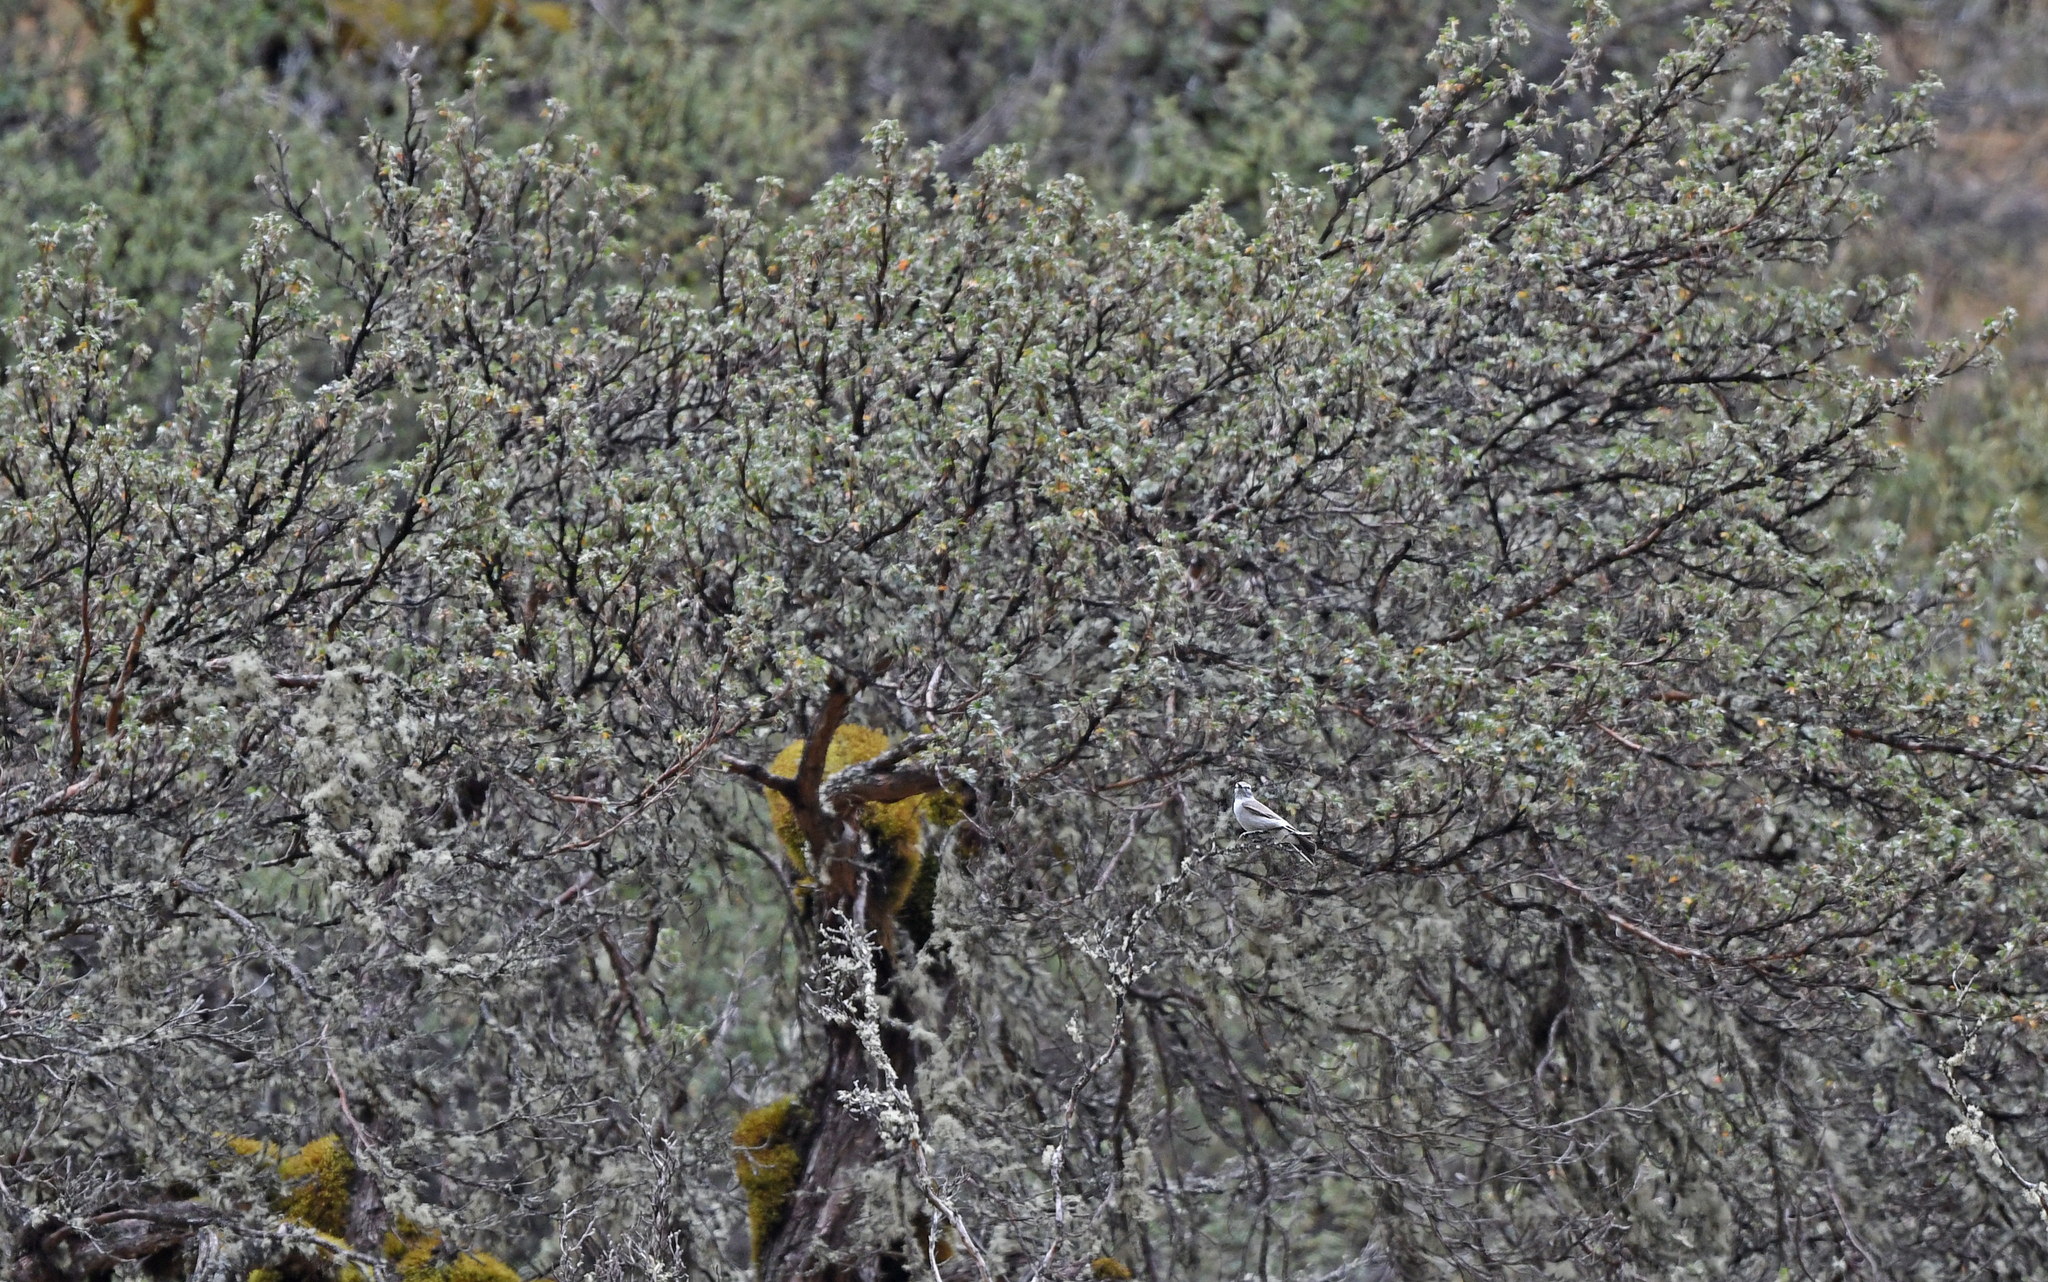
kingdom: Animalia
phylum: Chordata
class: Aves
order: Passeriformes
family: Tyrannidae
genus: Muscisaxicola
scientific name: Muscisaxicola rufivertex
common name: Rufous-naped ground tyrant
